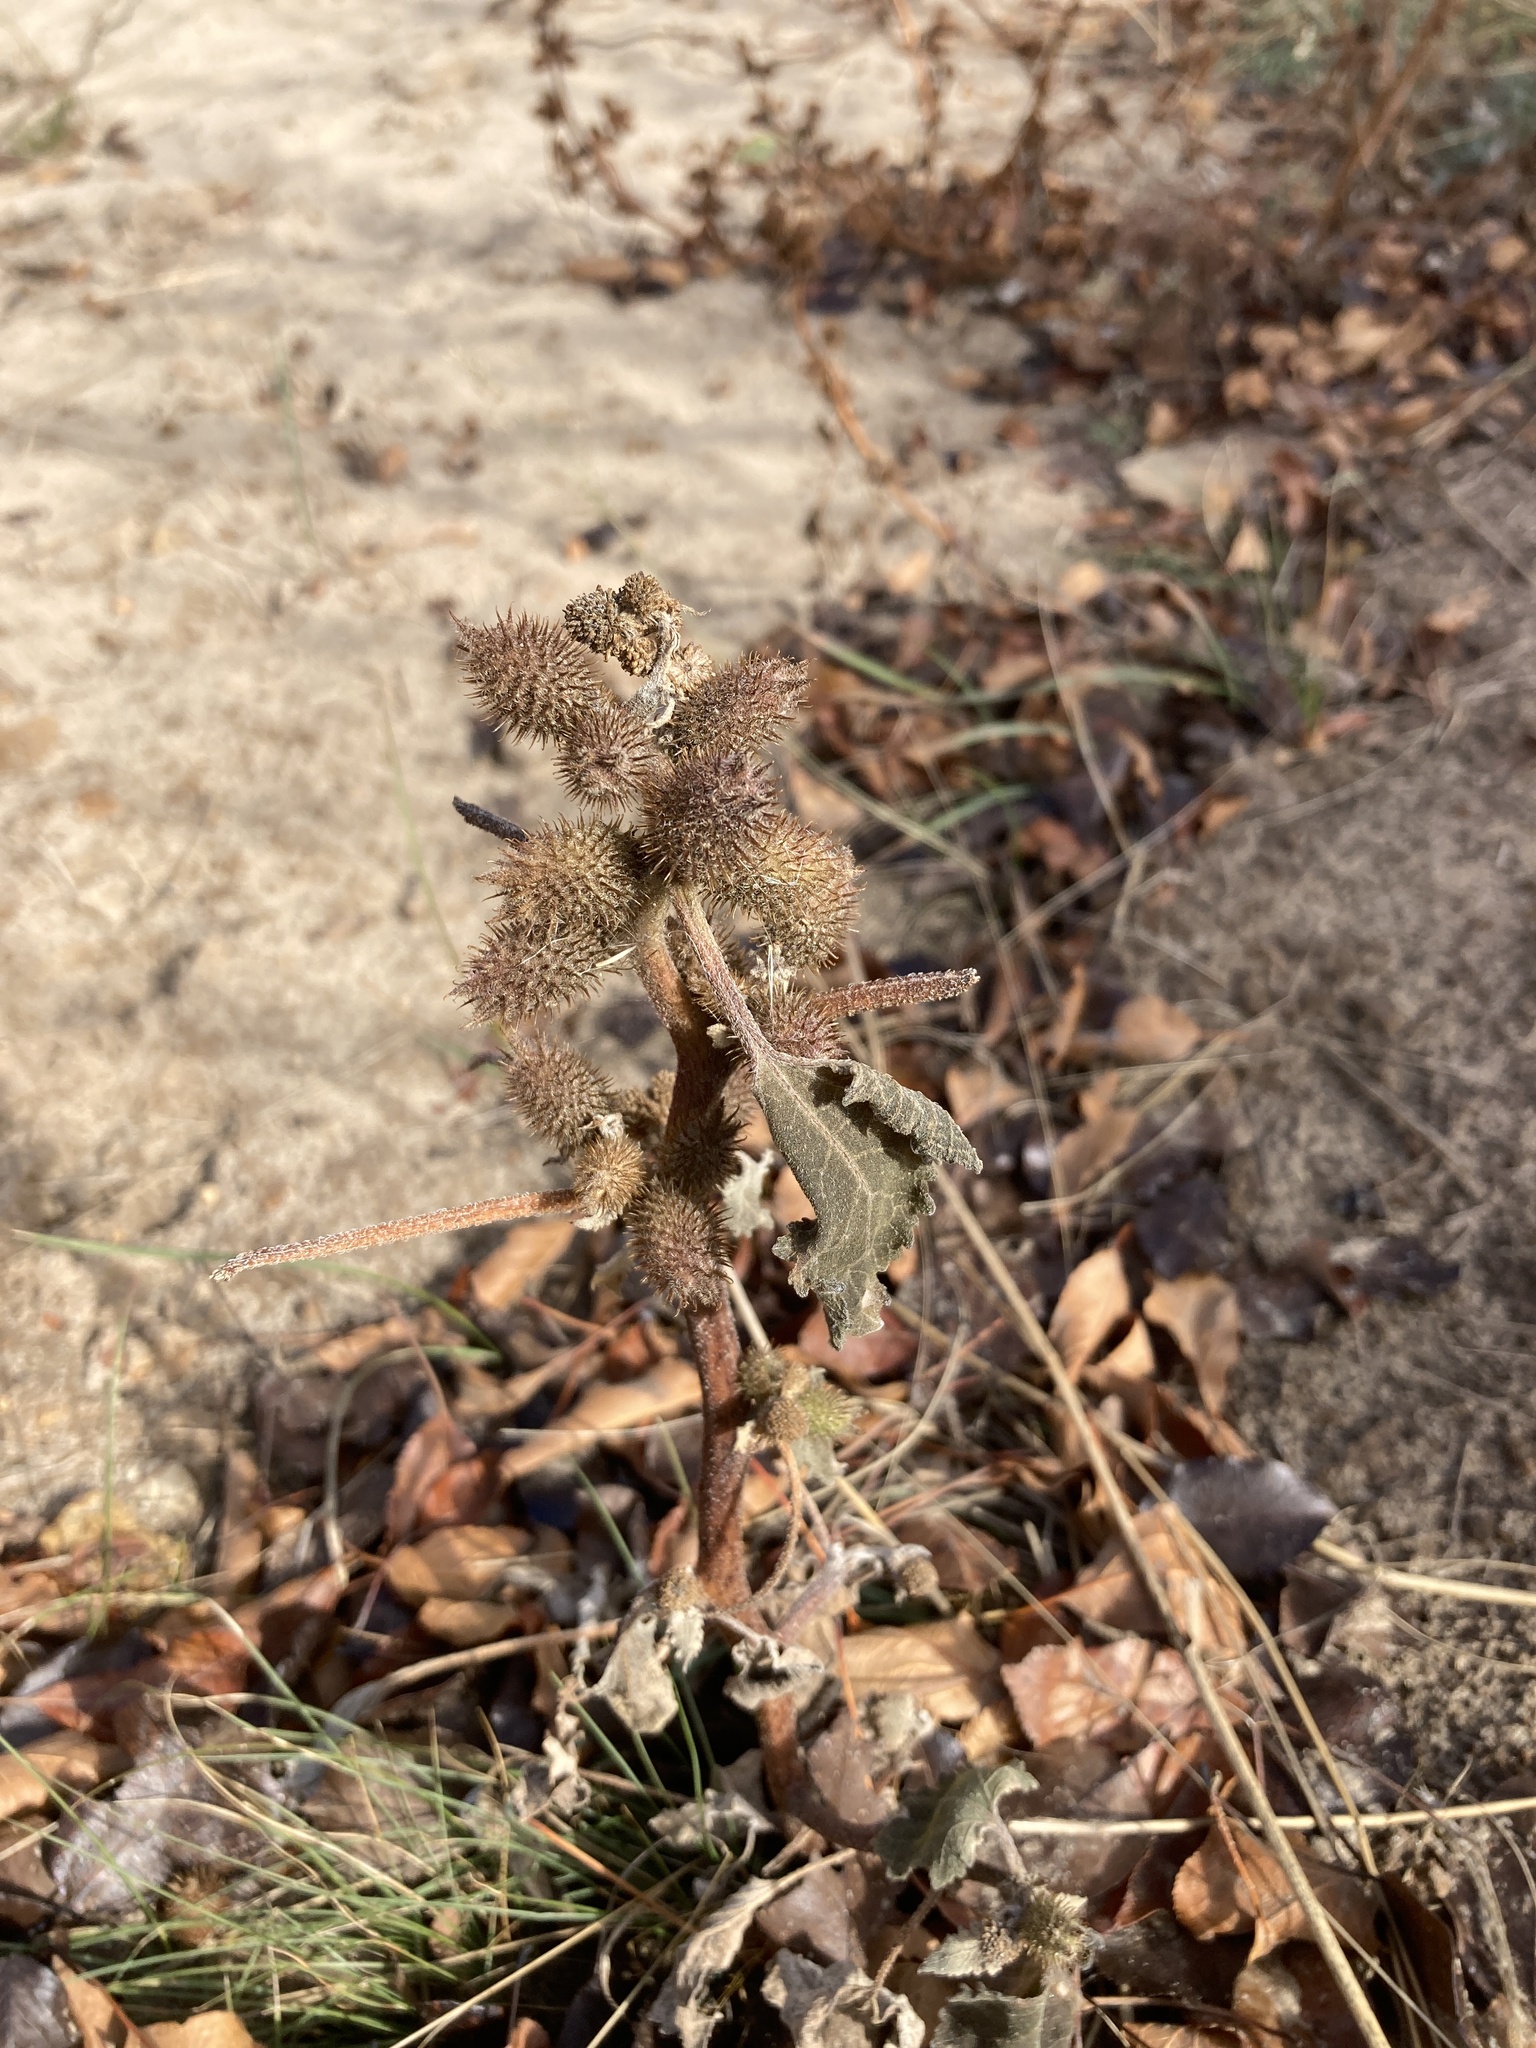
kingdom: Plantae
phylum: Tracheophyta
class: Magnoliopsida
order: Asterales
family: Asteraceae
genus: Xanthium
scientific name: Xanthium orientale
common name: Californian burr
